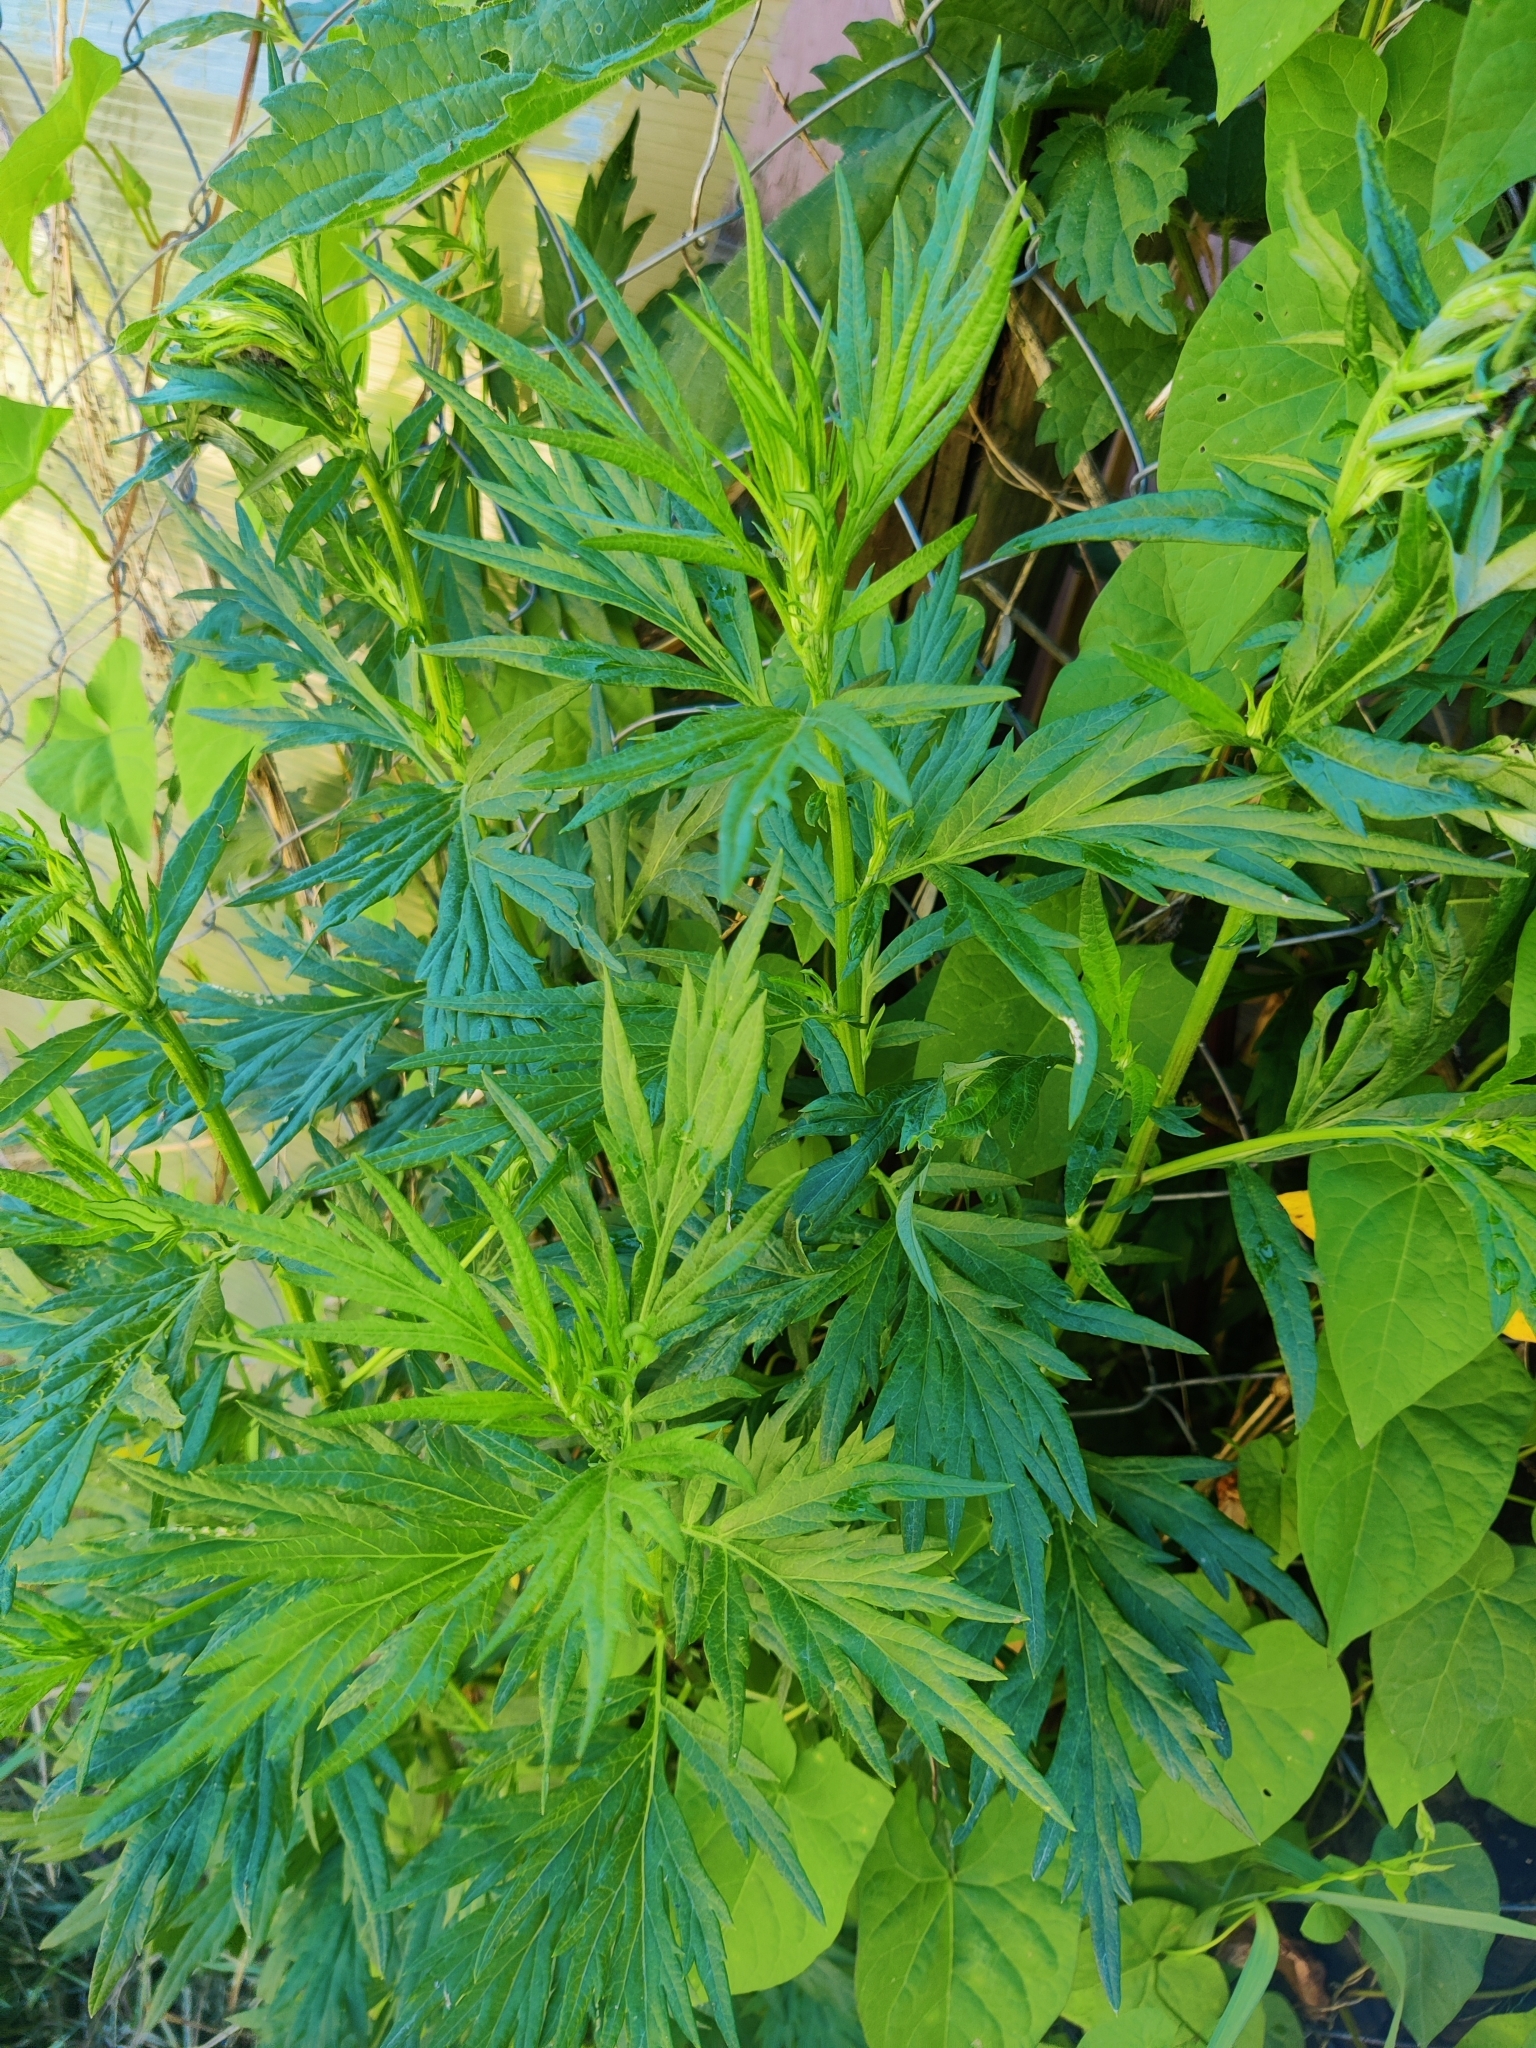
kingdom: Plantae
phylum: Tracheophyta
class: Magnoliopsida
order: Asterales
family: Asteraceae
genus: Artemisia
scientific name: Artemisia vulgaris
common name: Mugwort
